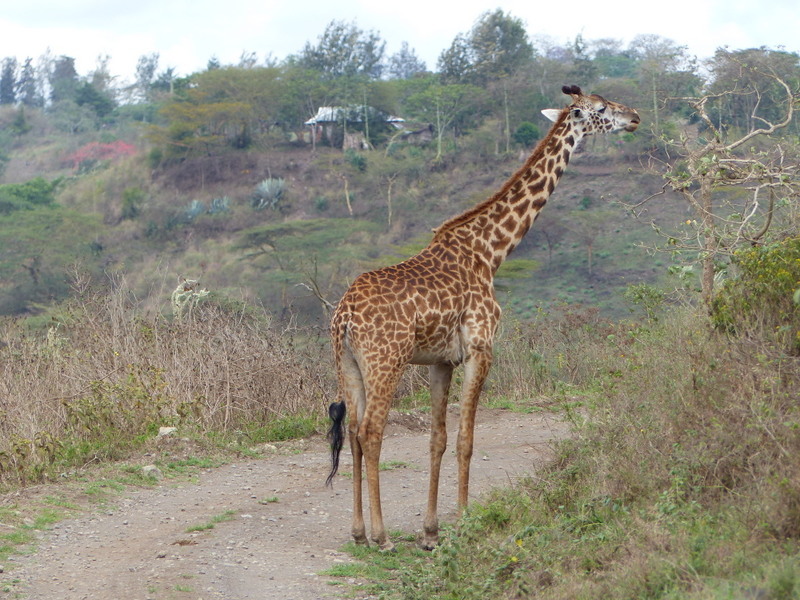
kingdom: Animalia
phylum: Chordata
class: Mammalia
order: Artiodactyla
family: Giraffidae
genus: Giraffa
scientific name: Giraffa tippelskirchi
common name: Masai giraffe
